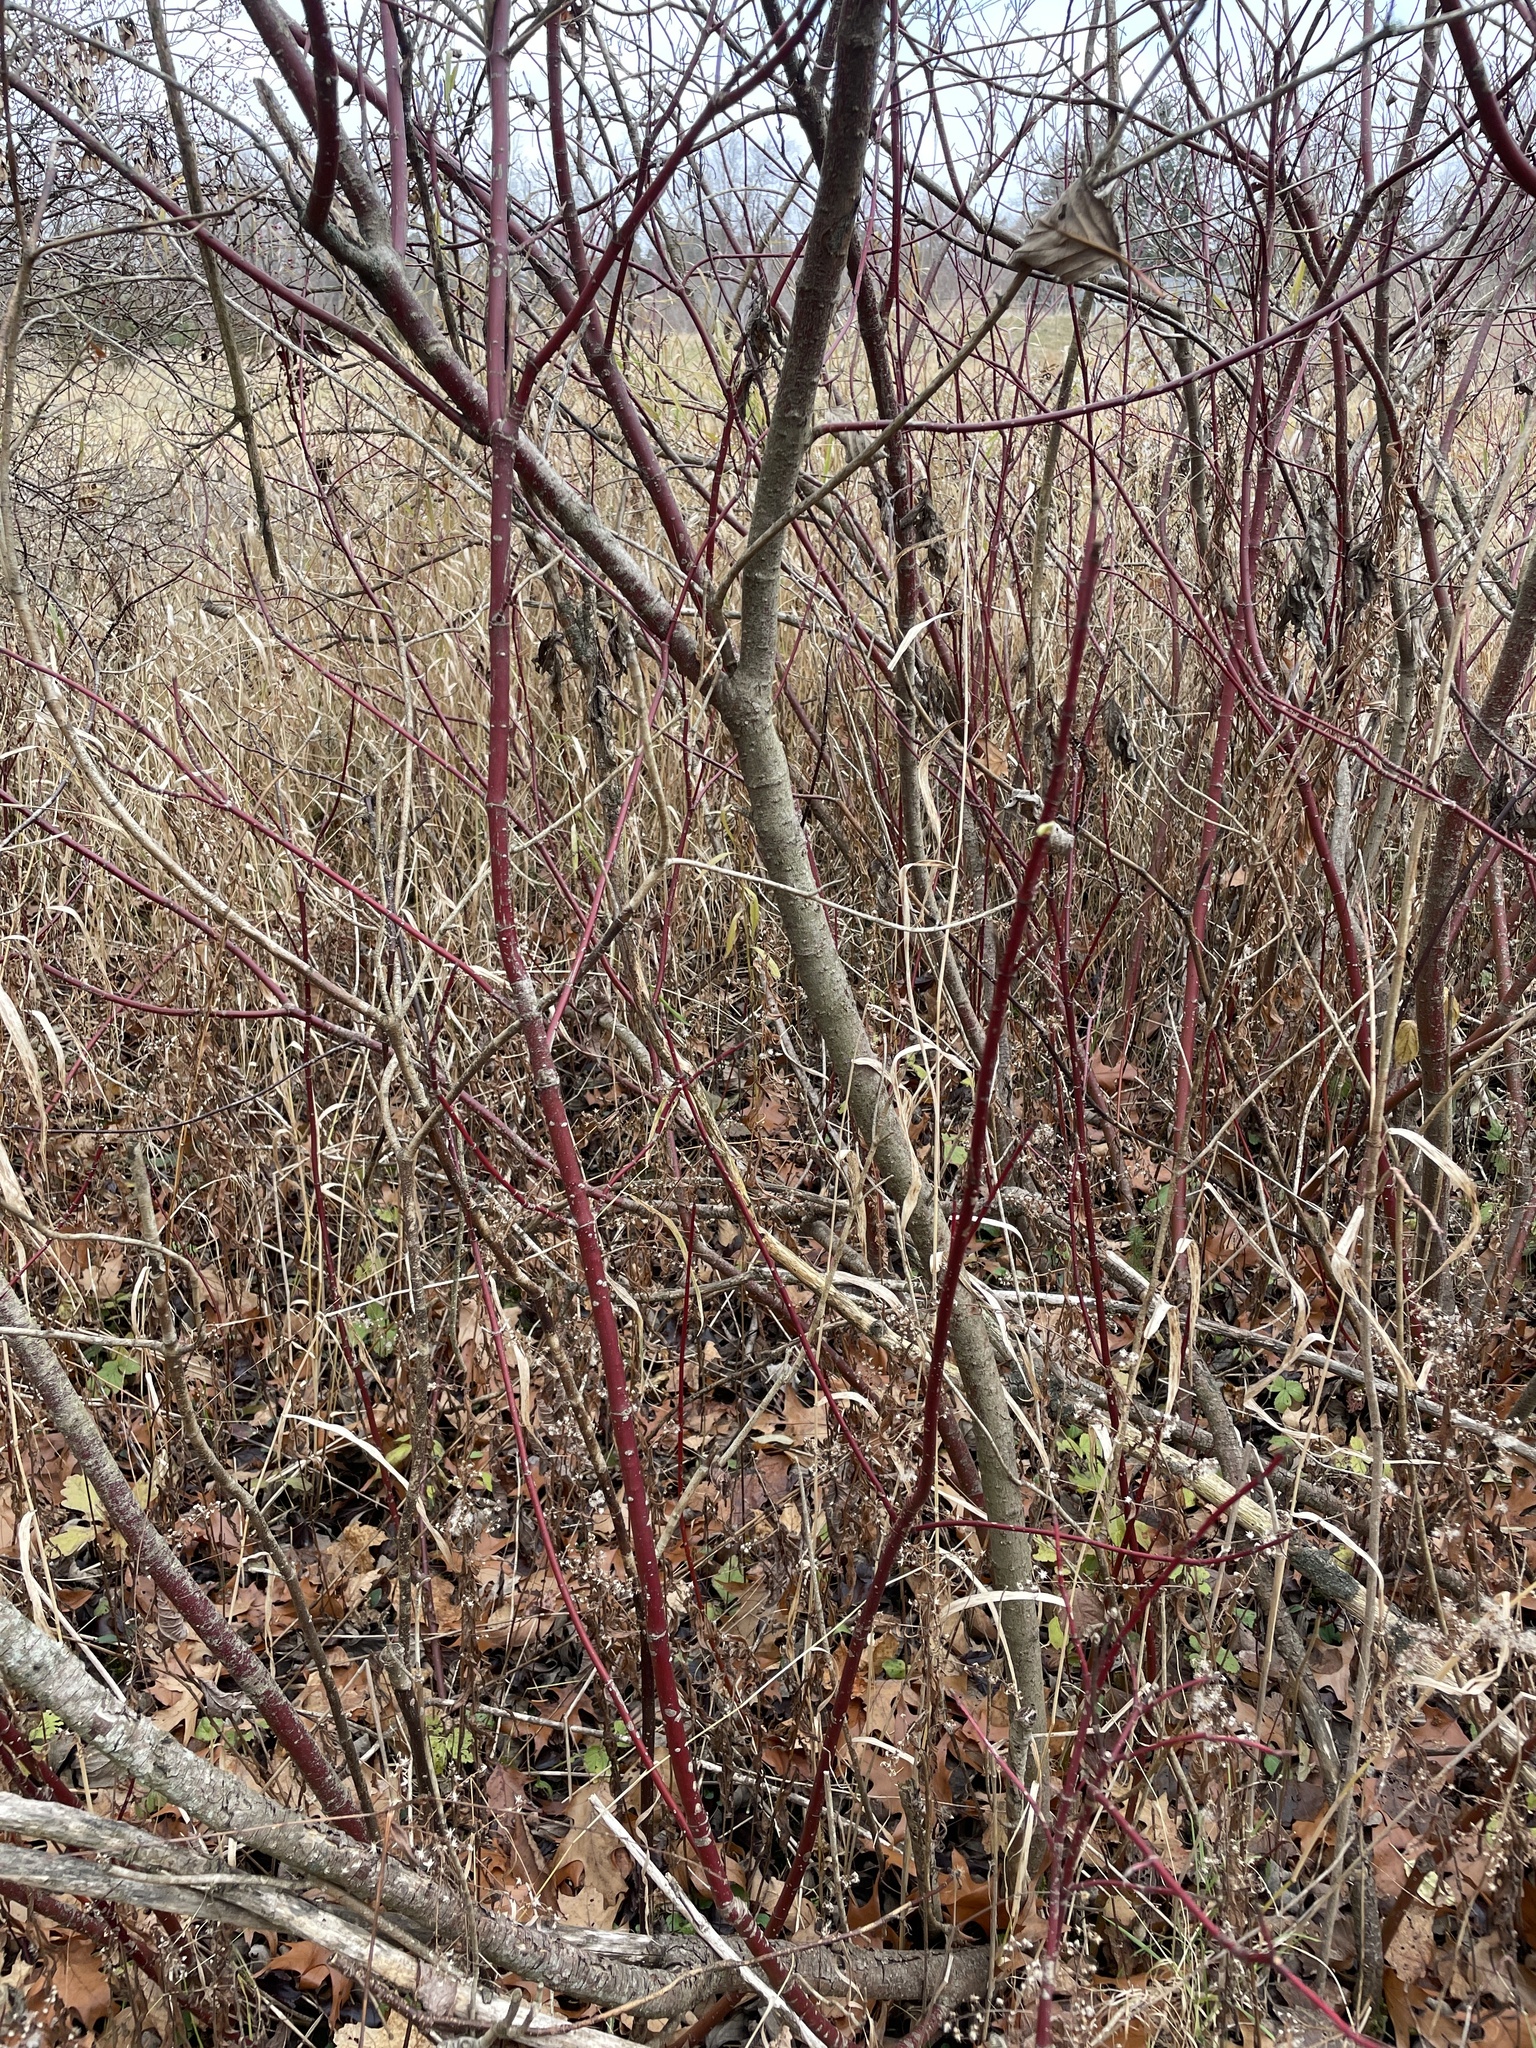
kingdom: Plantae
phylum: Tracheophyta
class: Magnoliopsida
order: Cornales
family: Cornaceae
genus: Cornus
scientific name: Cornus sericea
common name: Red-osier dogwood
